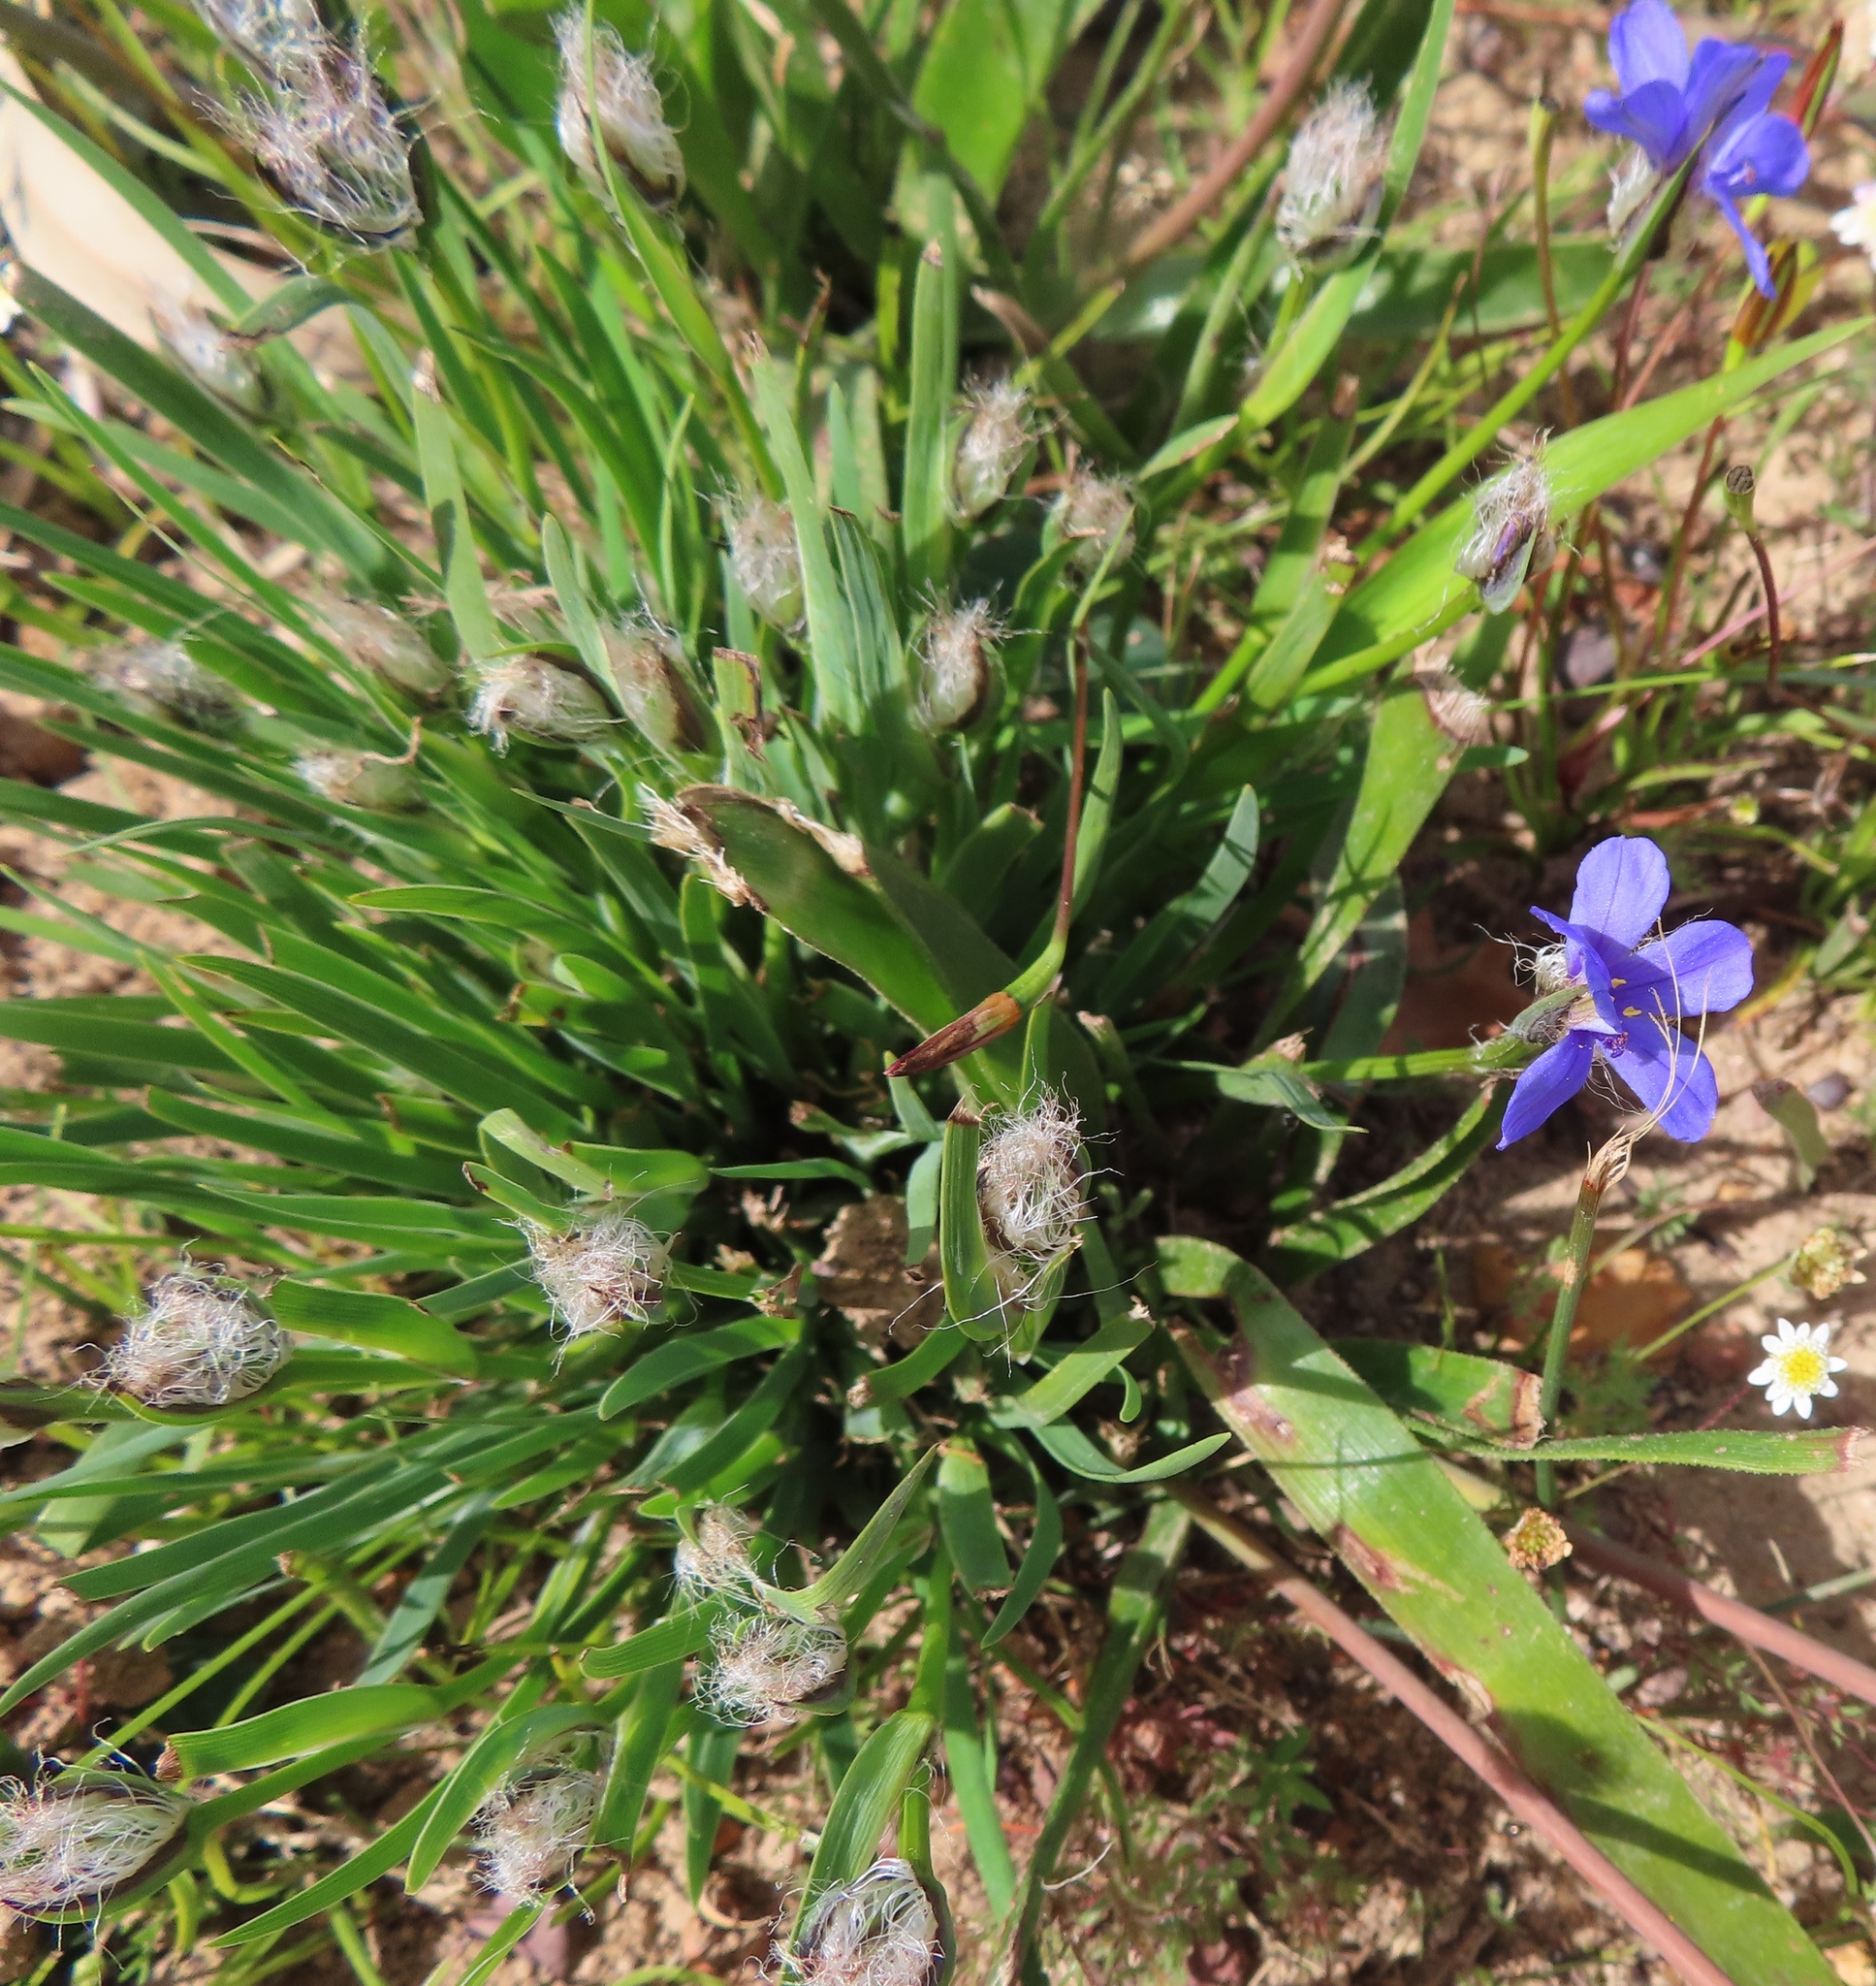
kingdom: Plantae
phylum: Tracheophyta
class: Liliopsida
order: Asparagales
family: Iridaceae
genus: Aristea
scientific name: Aristea africana
